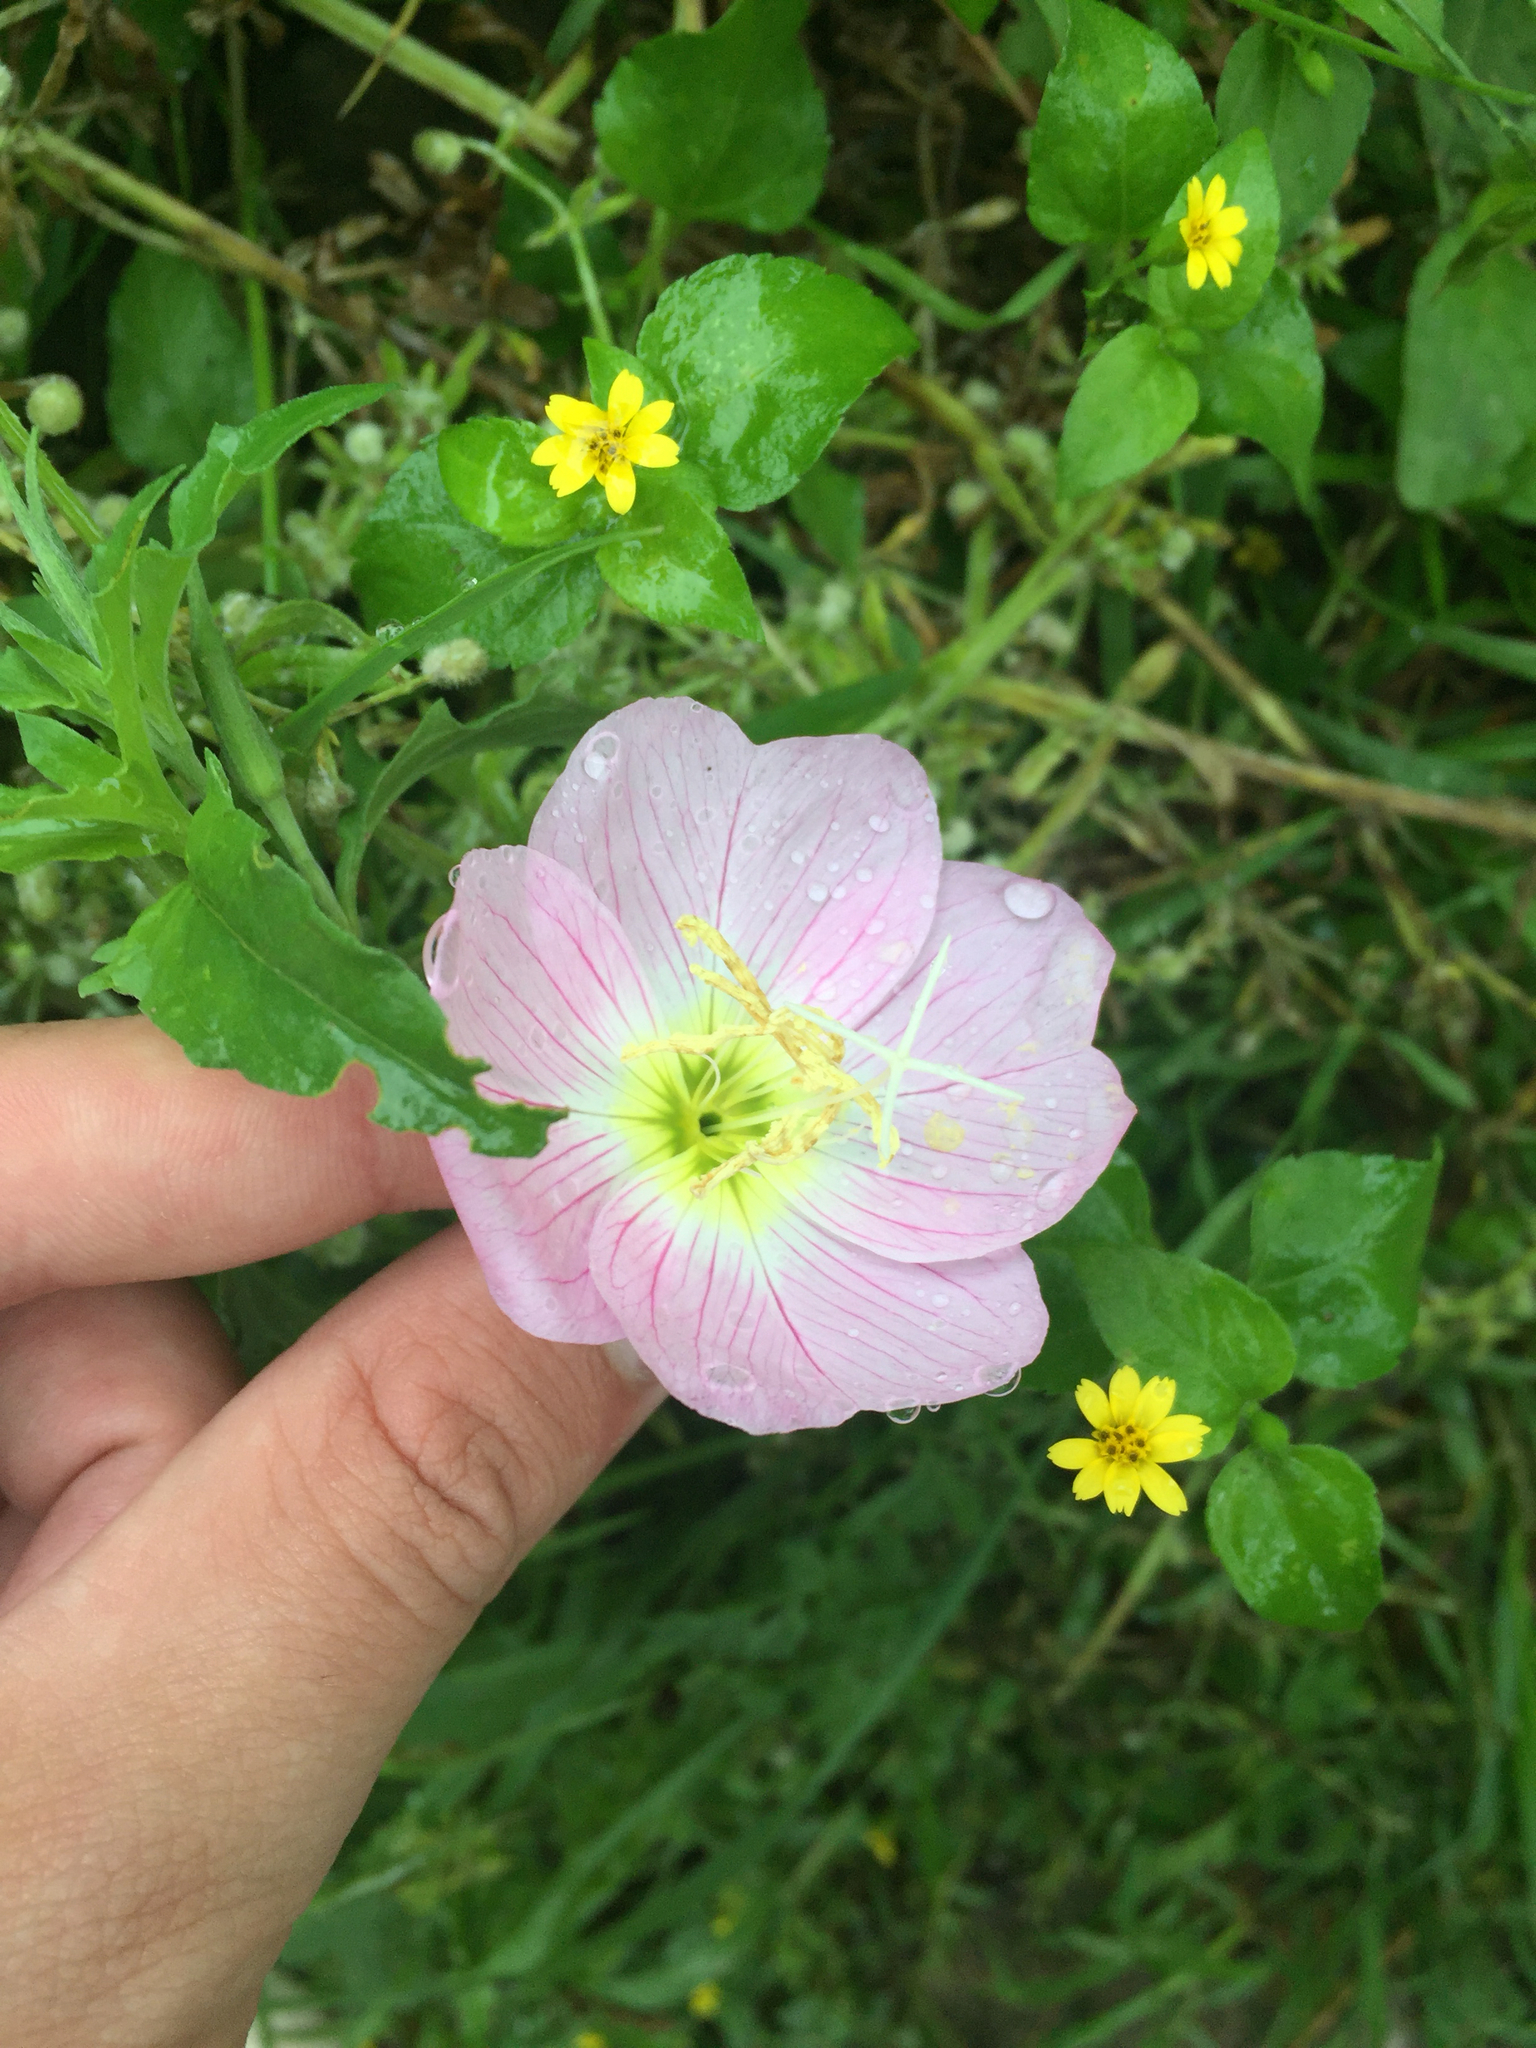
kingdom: Plantae
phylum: Tracheophyta
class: Magnoliopsida
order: Myrtales
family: Onagraceae
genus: Oenothera
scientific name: Oenothera speciosa
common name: White evening-primrose
